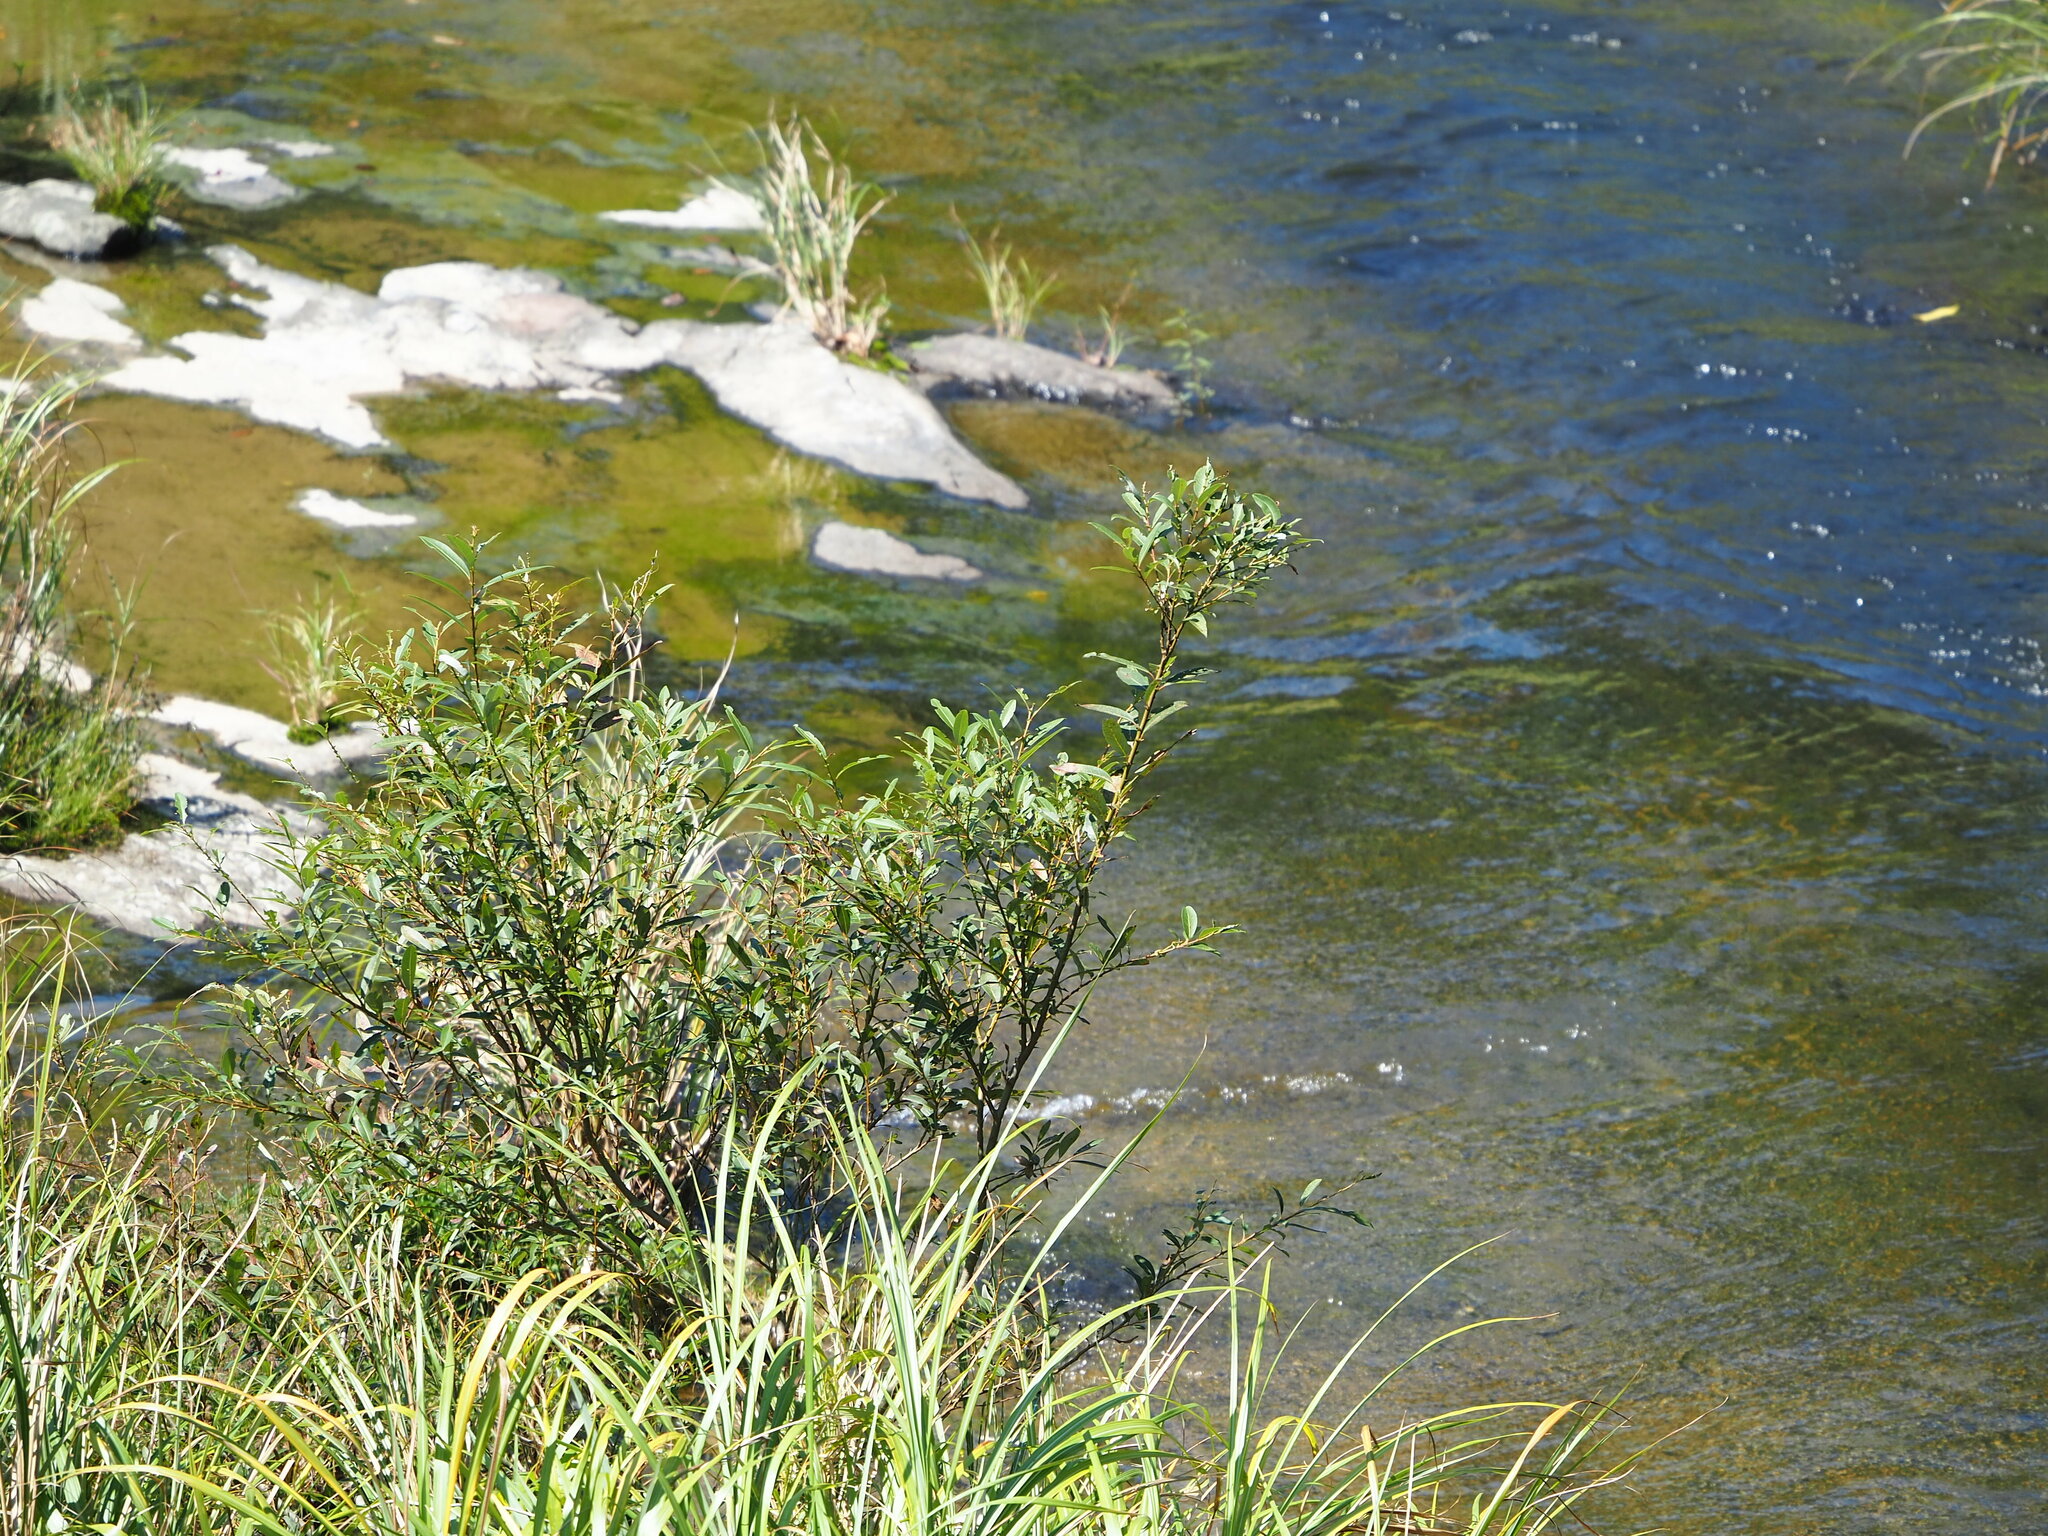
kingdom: Plantae
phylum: Tracheophyta
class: Magnoliopsida
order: Malpighiales
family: Salicaceae
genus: Salix
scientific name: Salix mesnyi
